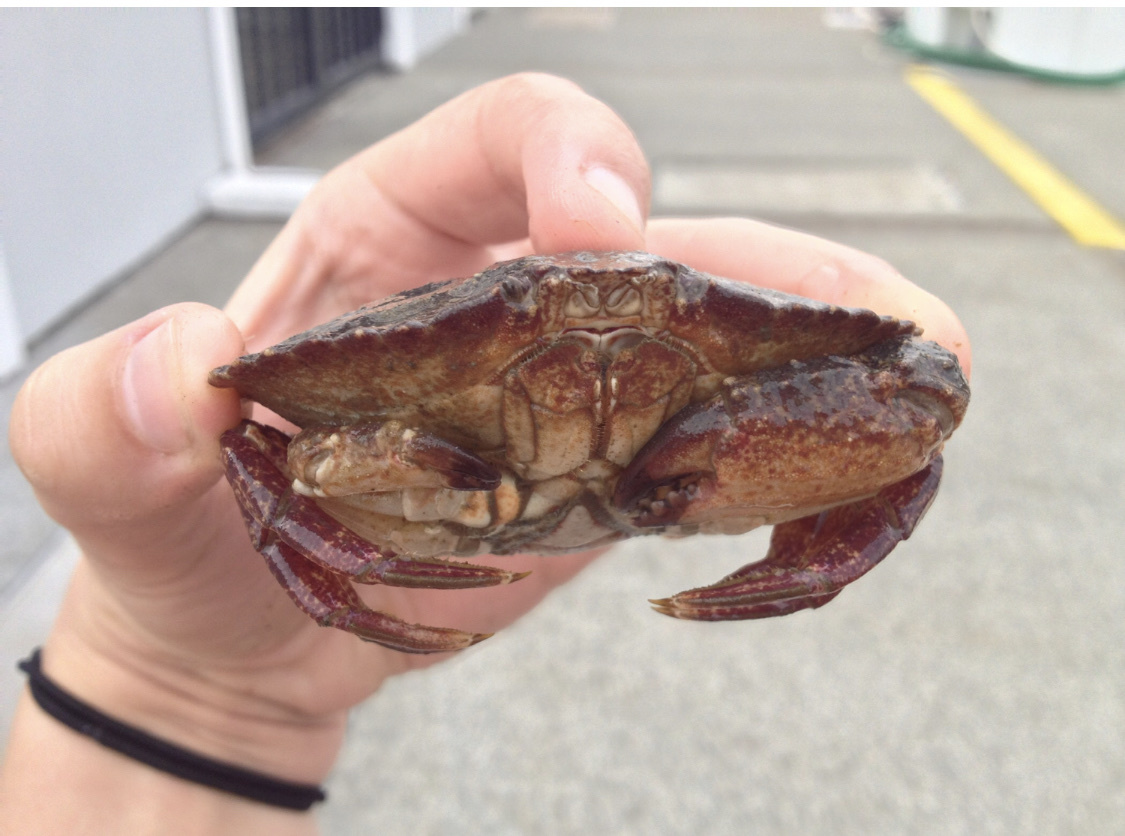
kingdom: Animalia
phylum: Arthropoda
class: Malacostraca
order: Decapoda
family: Cancridae
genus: Cancer
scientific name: Cancer productus
